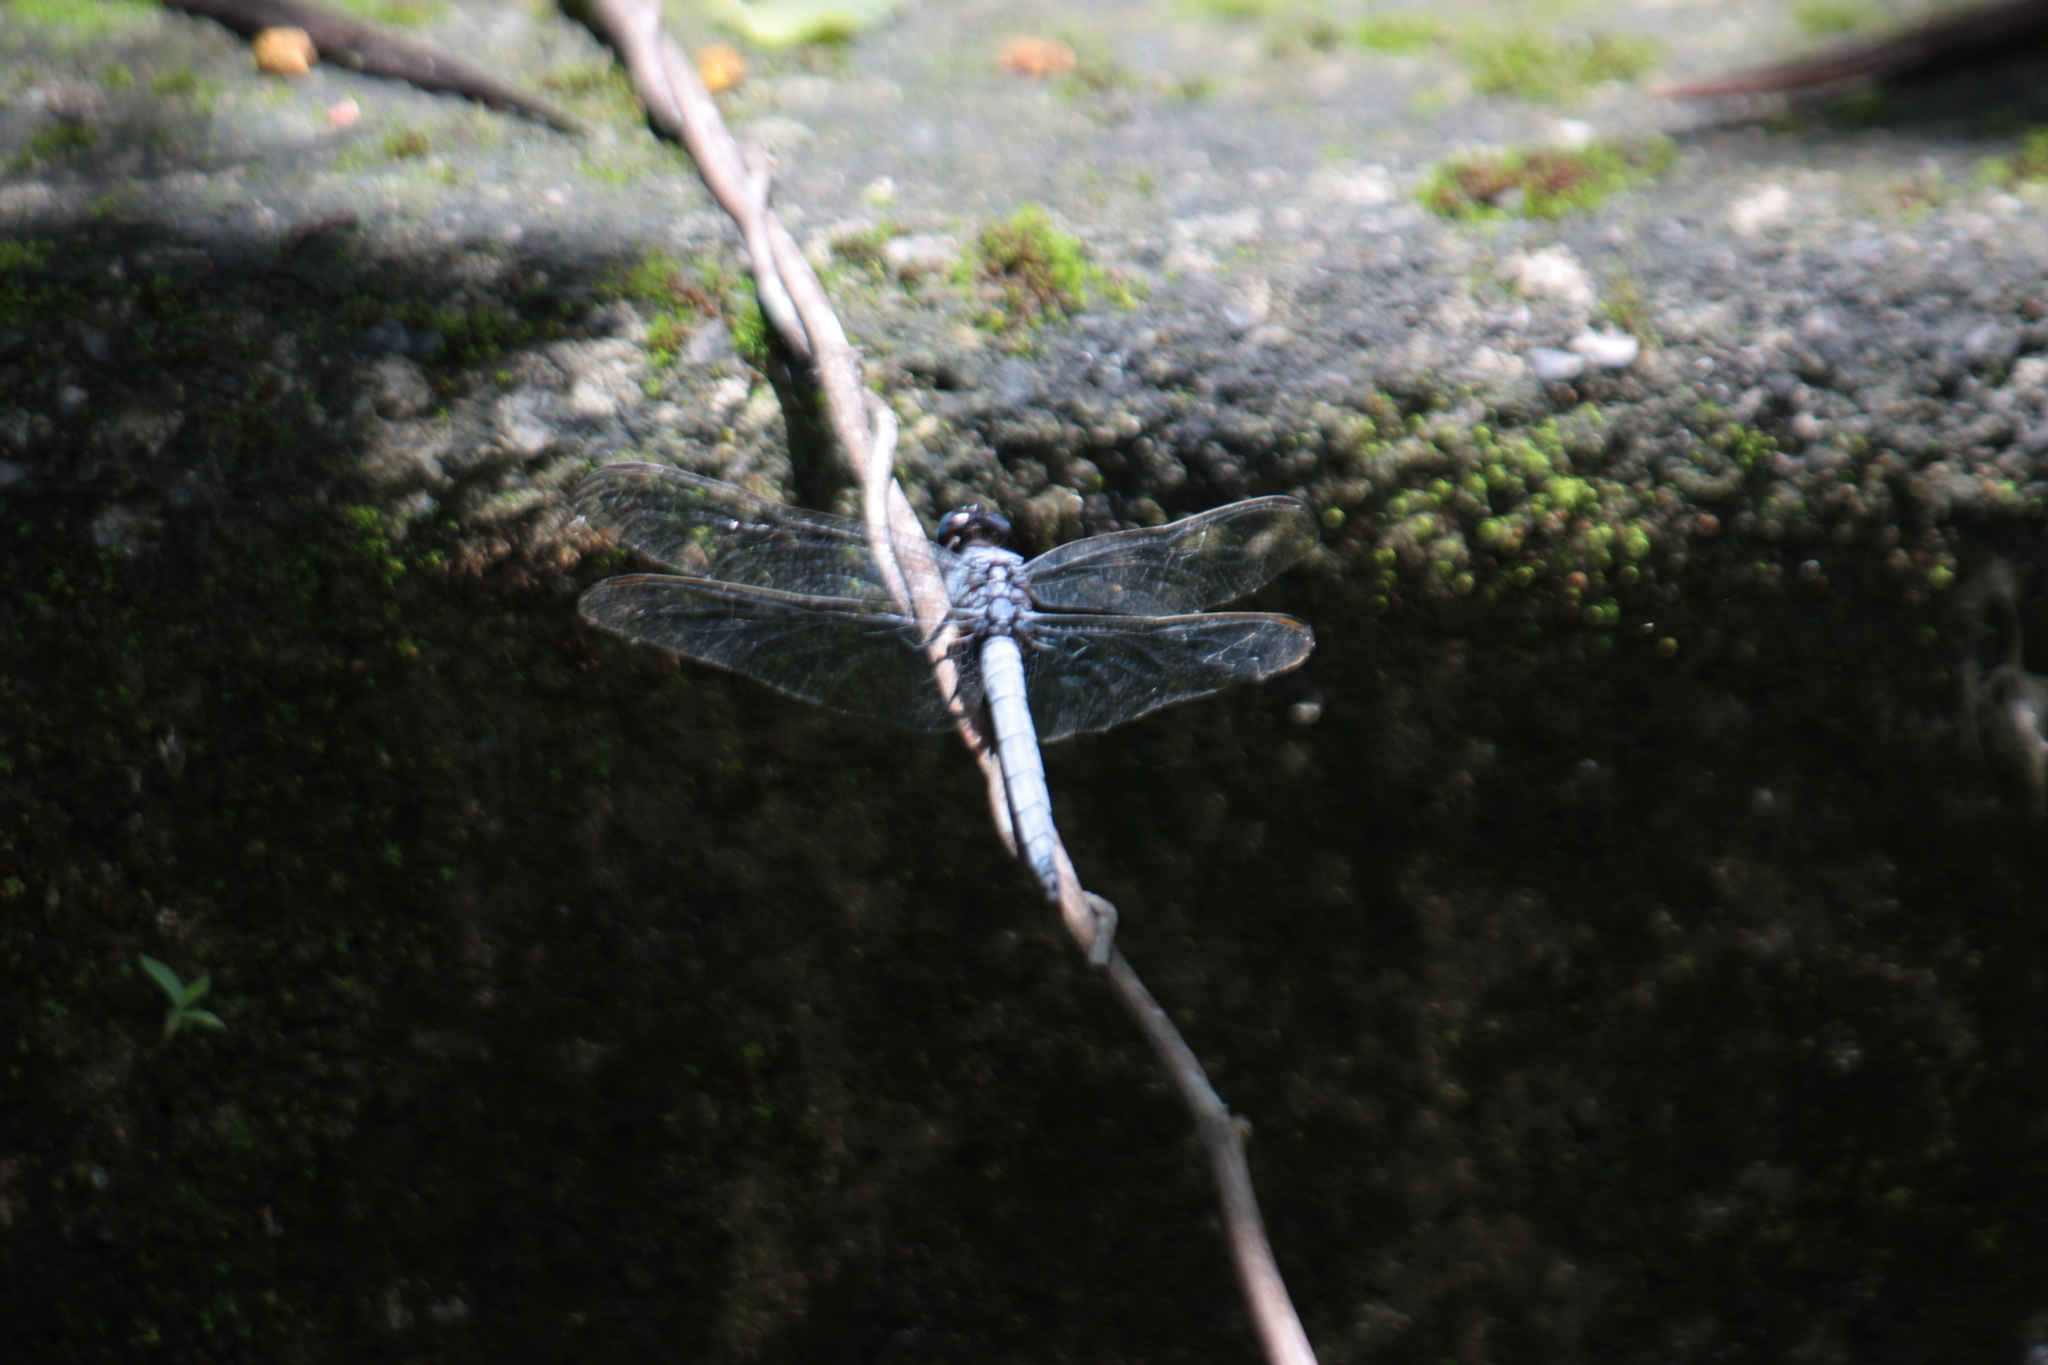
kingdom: Animalia
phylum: Arthropoda
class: Insecta
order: Odonata
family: Libellulidae
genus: Orthetrum
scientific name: Orthetrum glaucum
